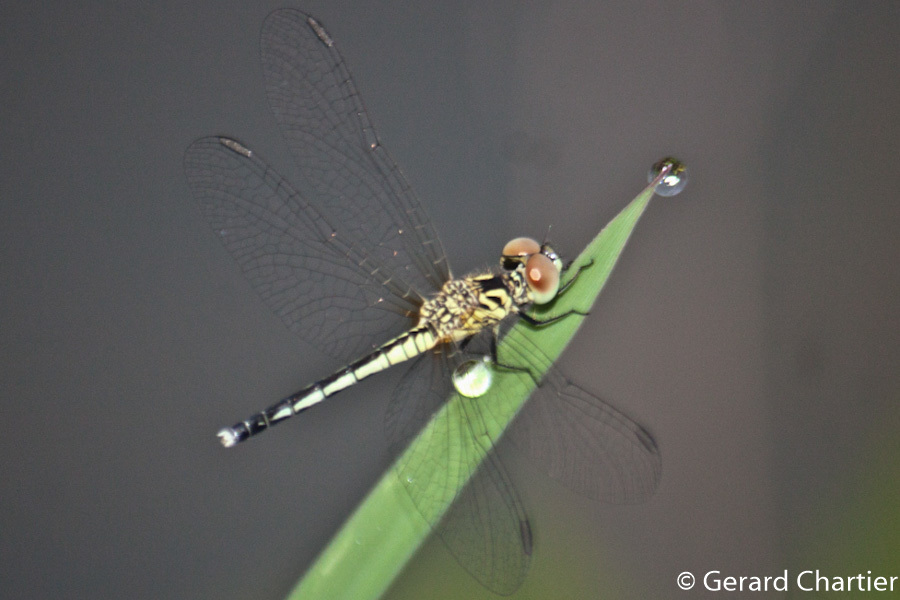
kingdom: Animalia
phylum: Arthropoda
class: Insecta
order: Odonata
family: Libellulidae
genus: Diplacodes
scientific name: Diplacodes nebulosa
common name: Black-tipped percher
